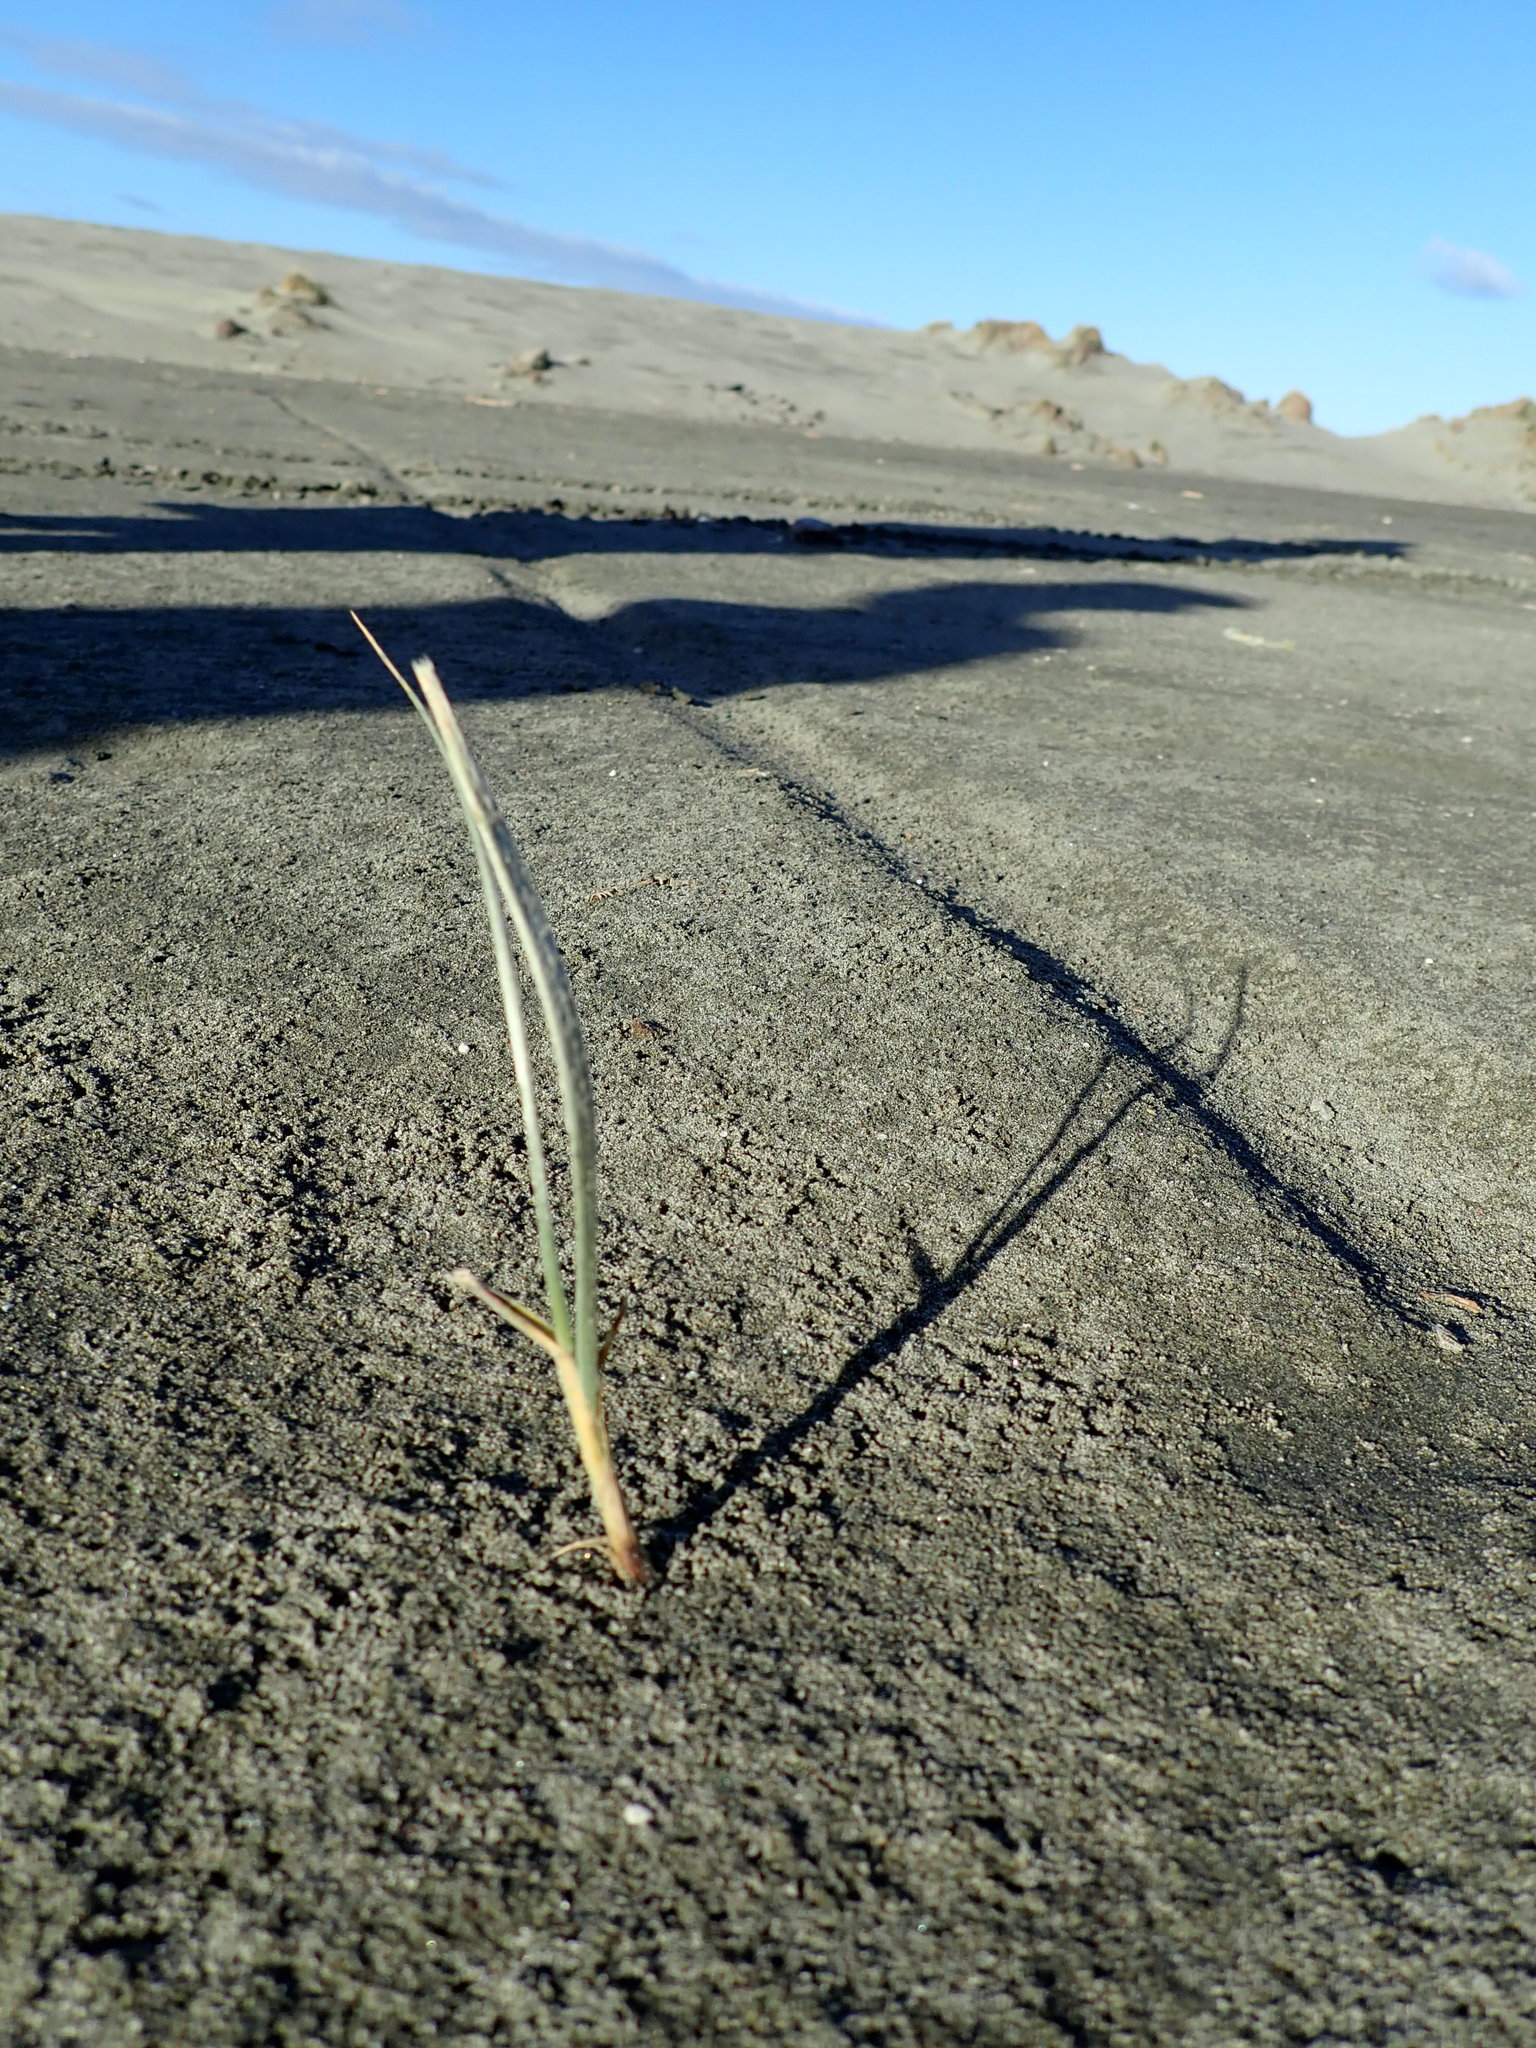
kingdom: Plantae
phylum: Tracheophyta
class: Liliopsida
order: Poales
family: Poaceae
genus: Spinifex
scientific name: Spinifex sericeus
